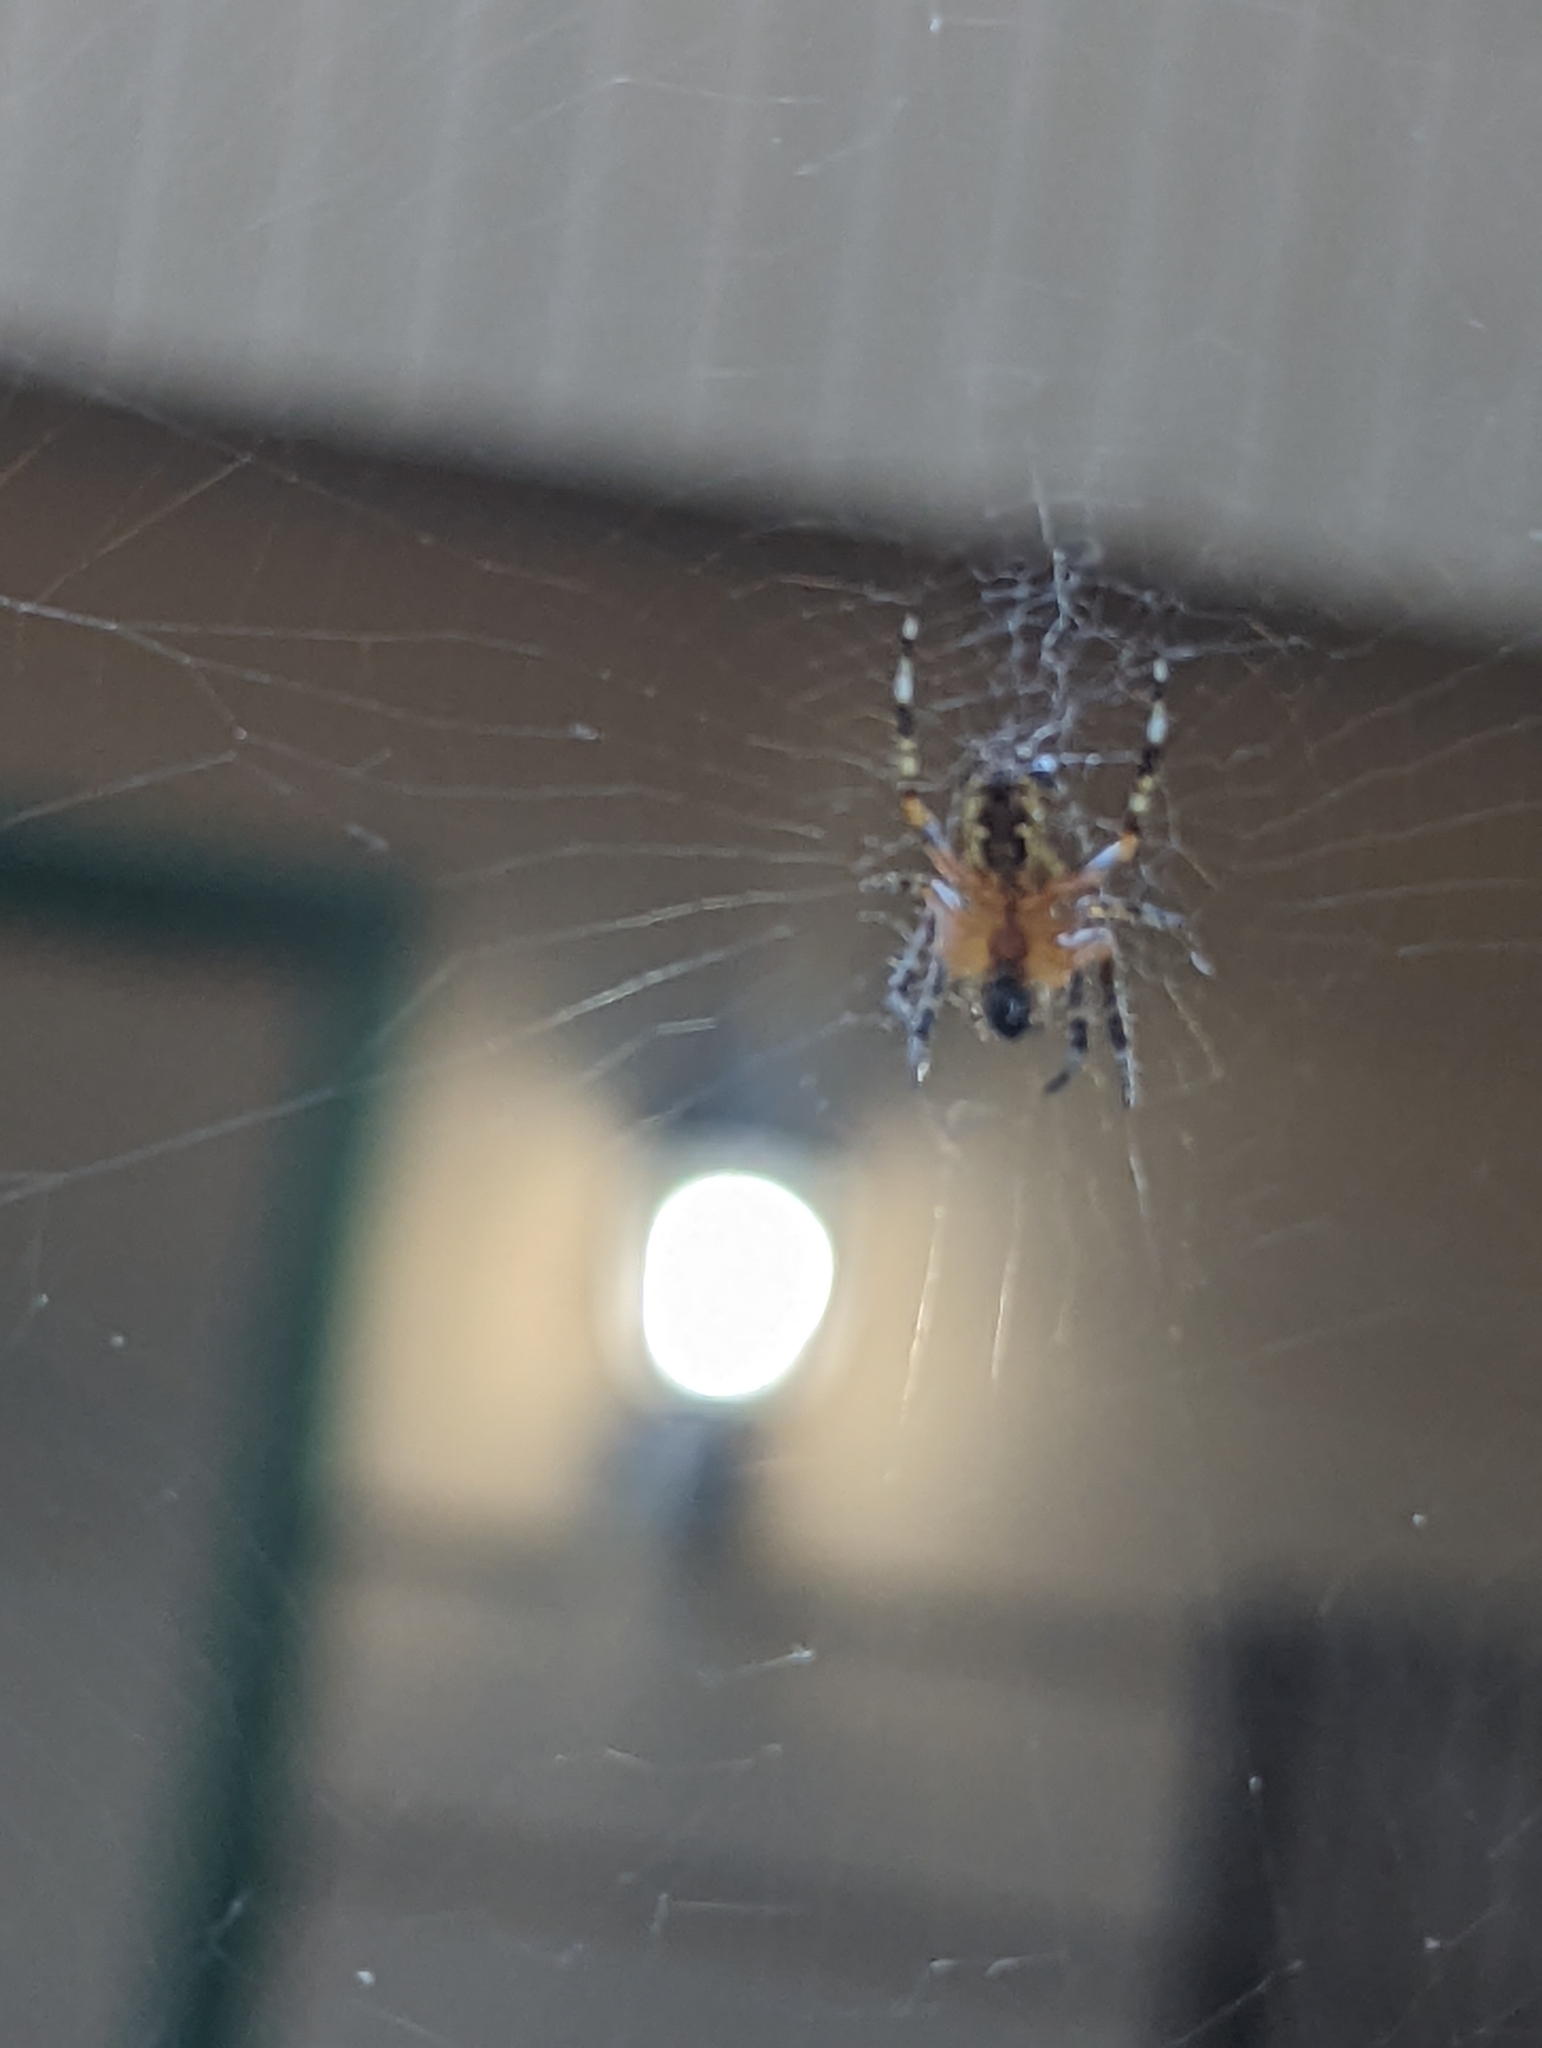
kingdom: Animalia
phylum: Arthropoda
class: Arachnida
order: Araneae
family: Araneidae
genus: Araneus
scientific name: Araneus diadematus
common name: Cross orbweaver
